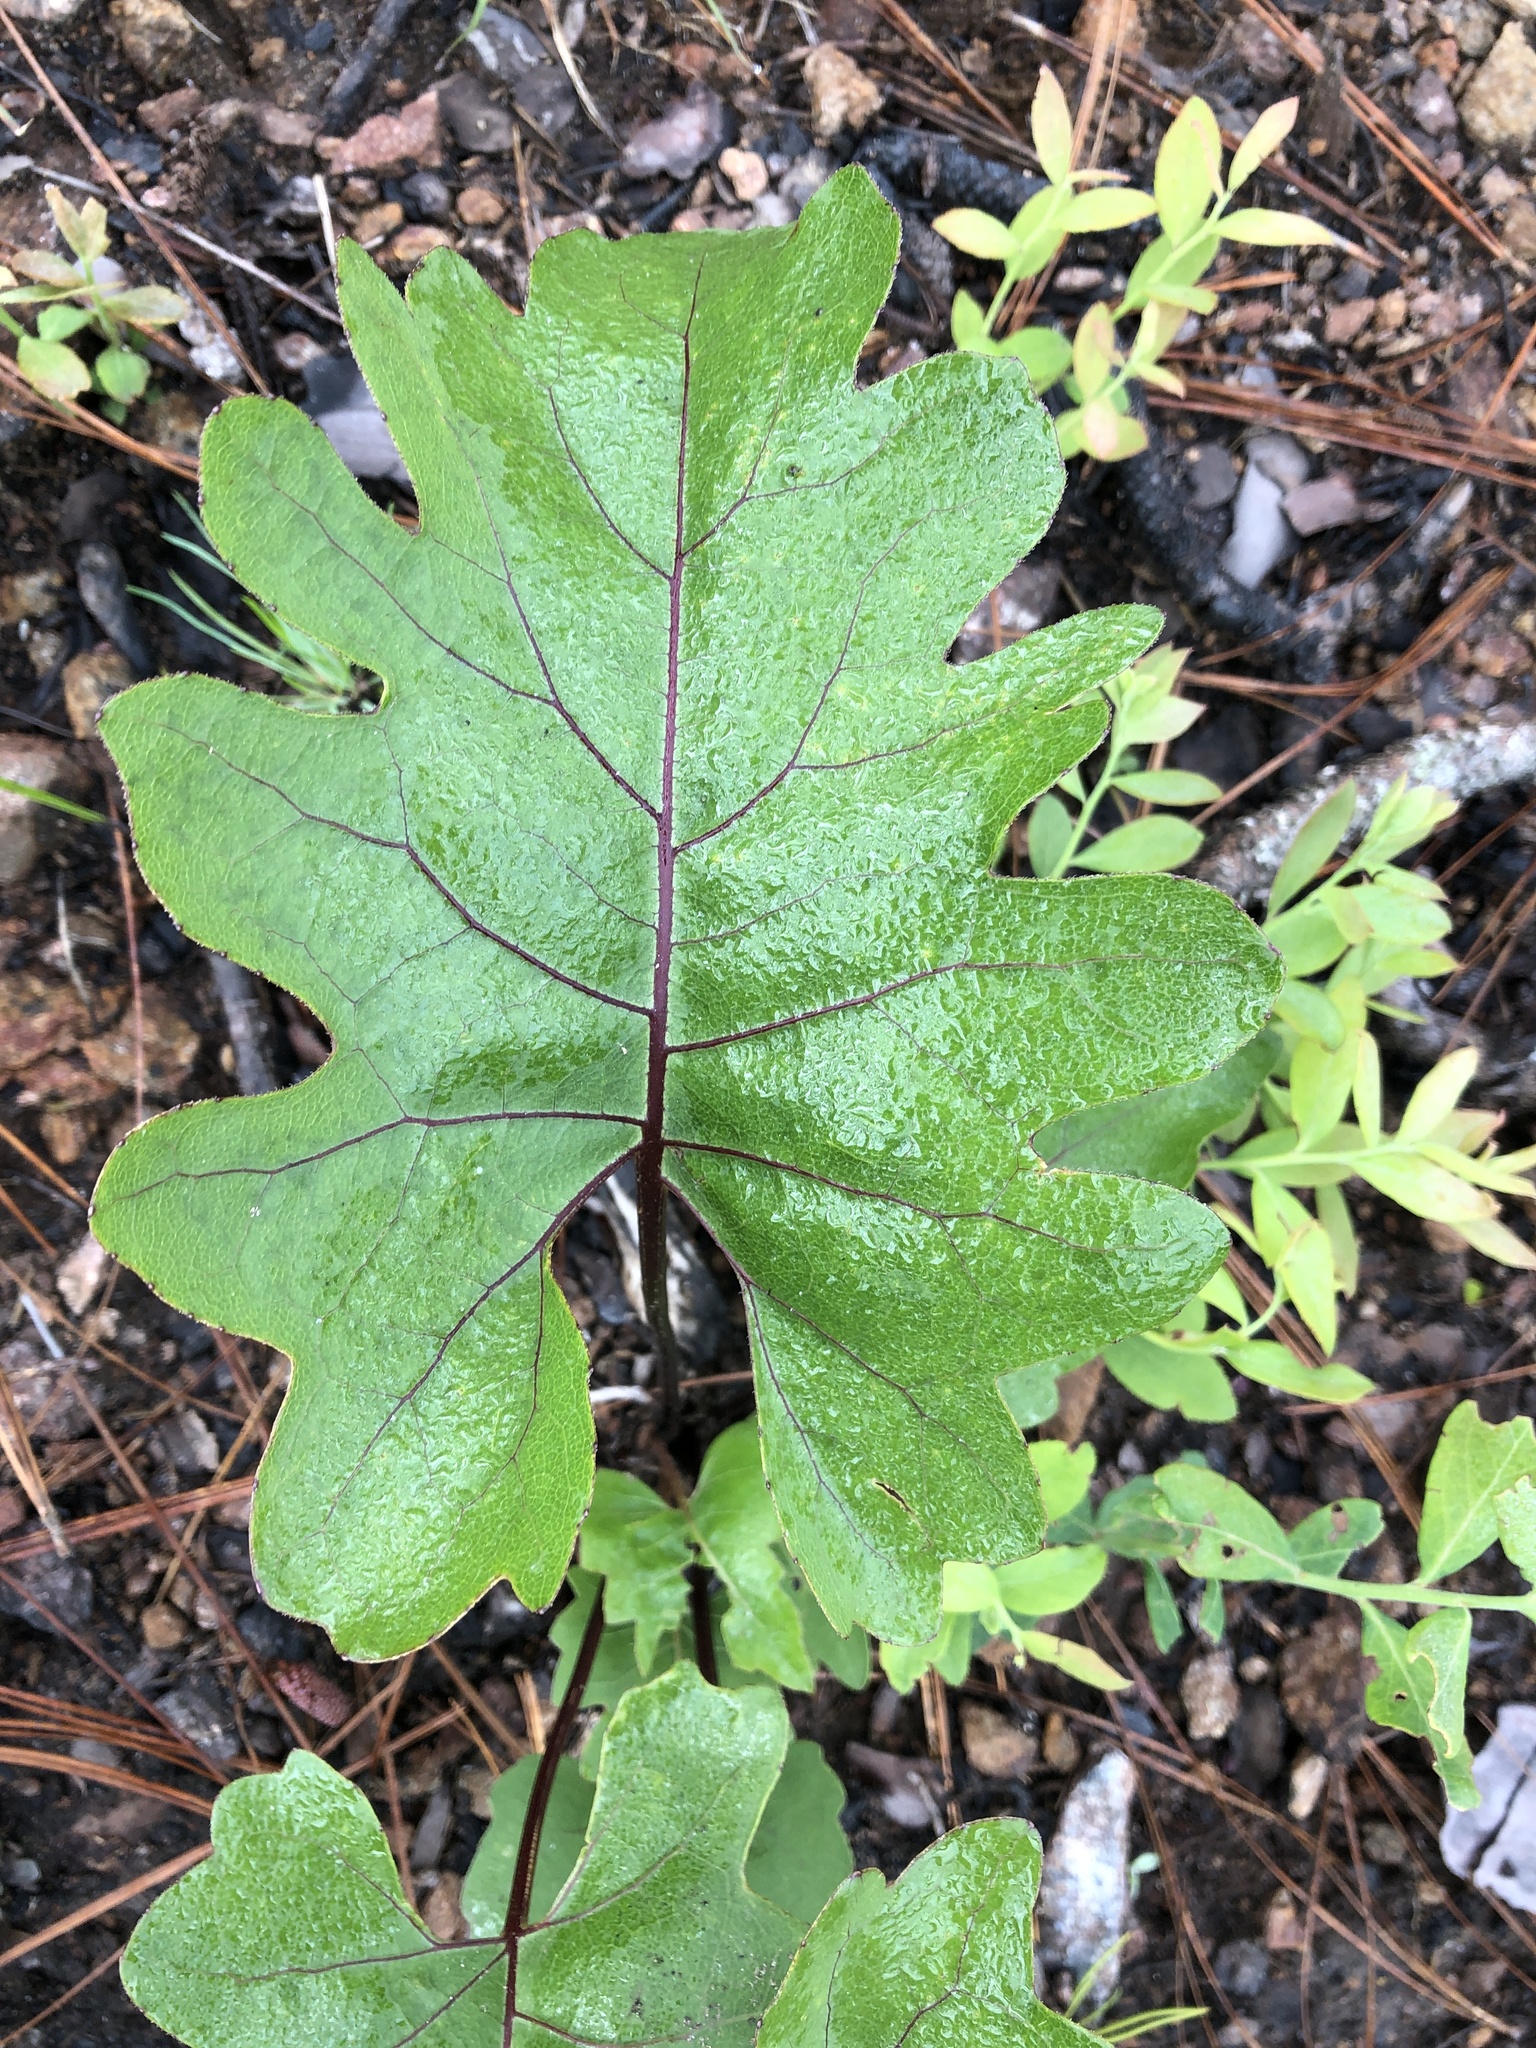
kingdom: Plantae
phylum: Tracheophyta
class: Magnoliopsida
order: Asterales
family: Asteraceae
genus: Silphium
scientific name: Silphium compositum
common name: Lesser basal-leaf rosinweed
